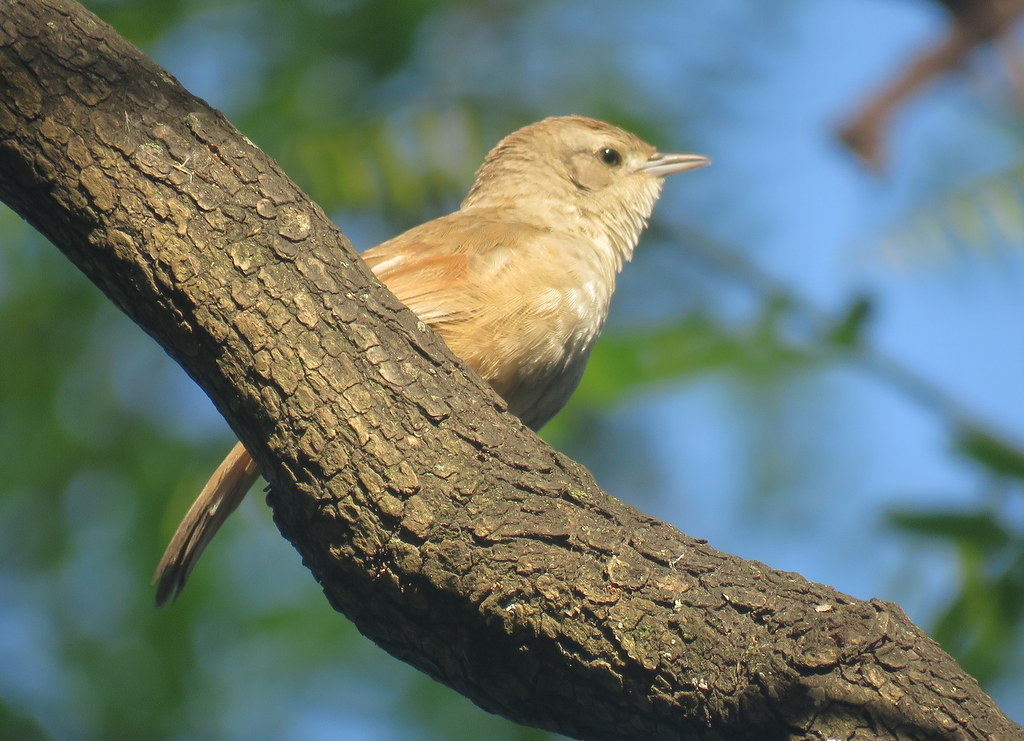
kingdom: Animalia
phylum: Chordata
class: Aves
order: Passeriformes
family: Furnariidae
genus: Phacellodomus
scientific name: Phacellodomus sibilatrix
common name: Little thornbird
